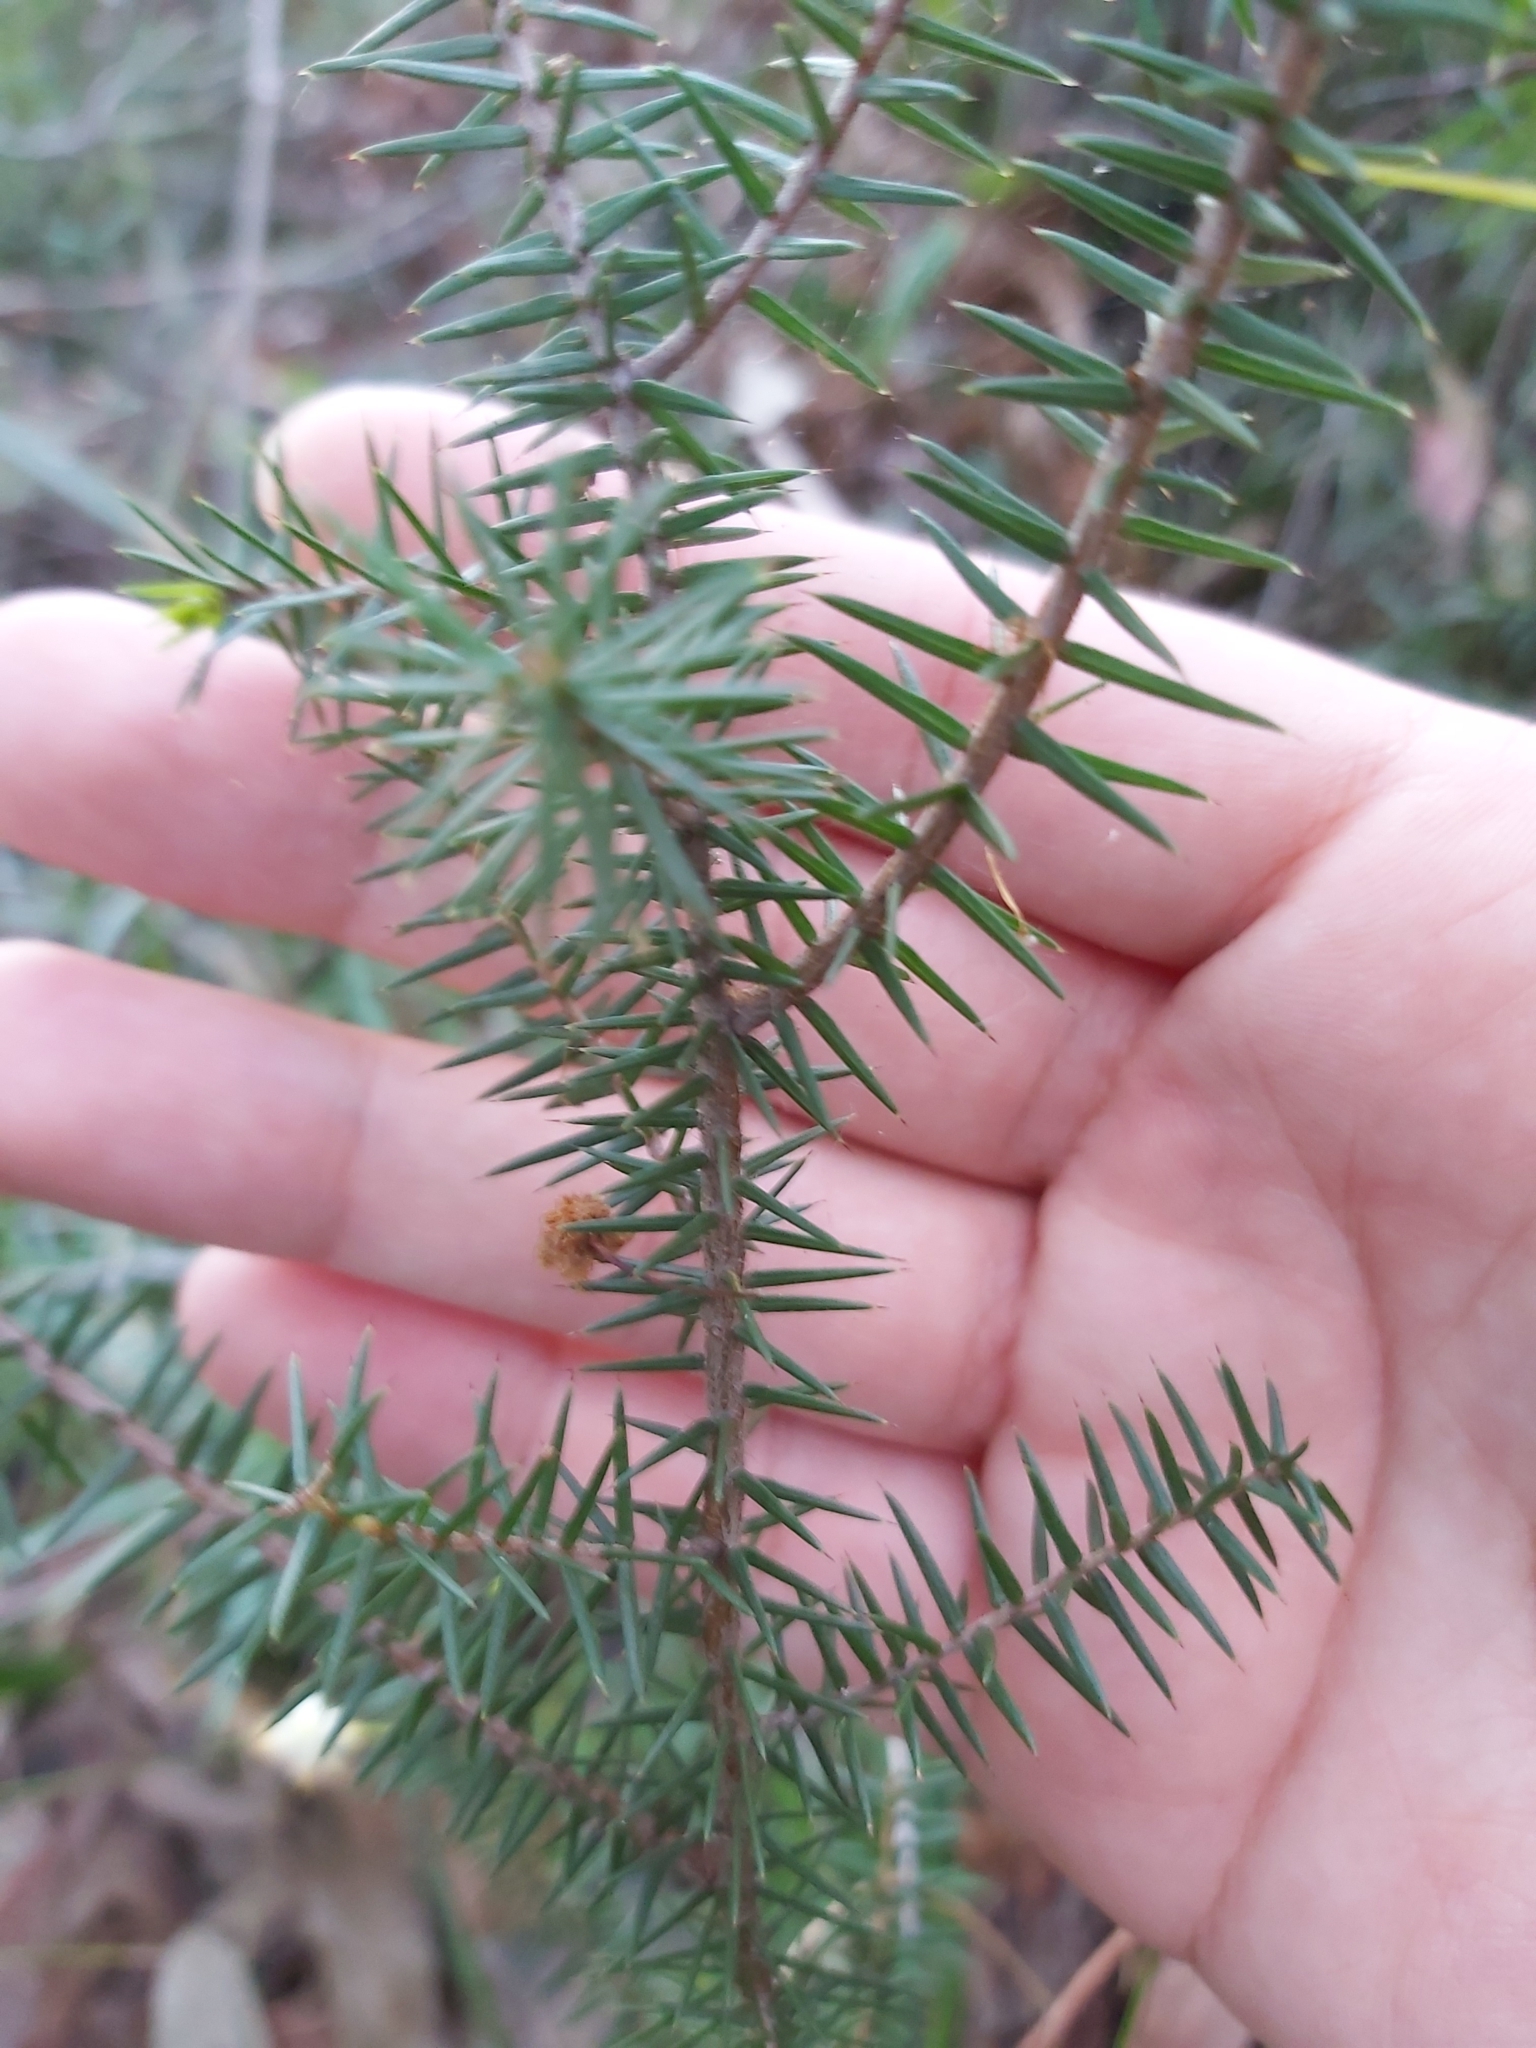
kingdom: Plantae
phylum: Tracheophyta
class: Magnoliopsida
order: Fabales
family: Fabaceae
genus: Acacia
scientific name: Acacia ulicifolia
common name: Juniper wattle
